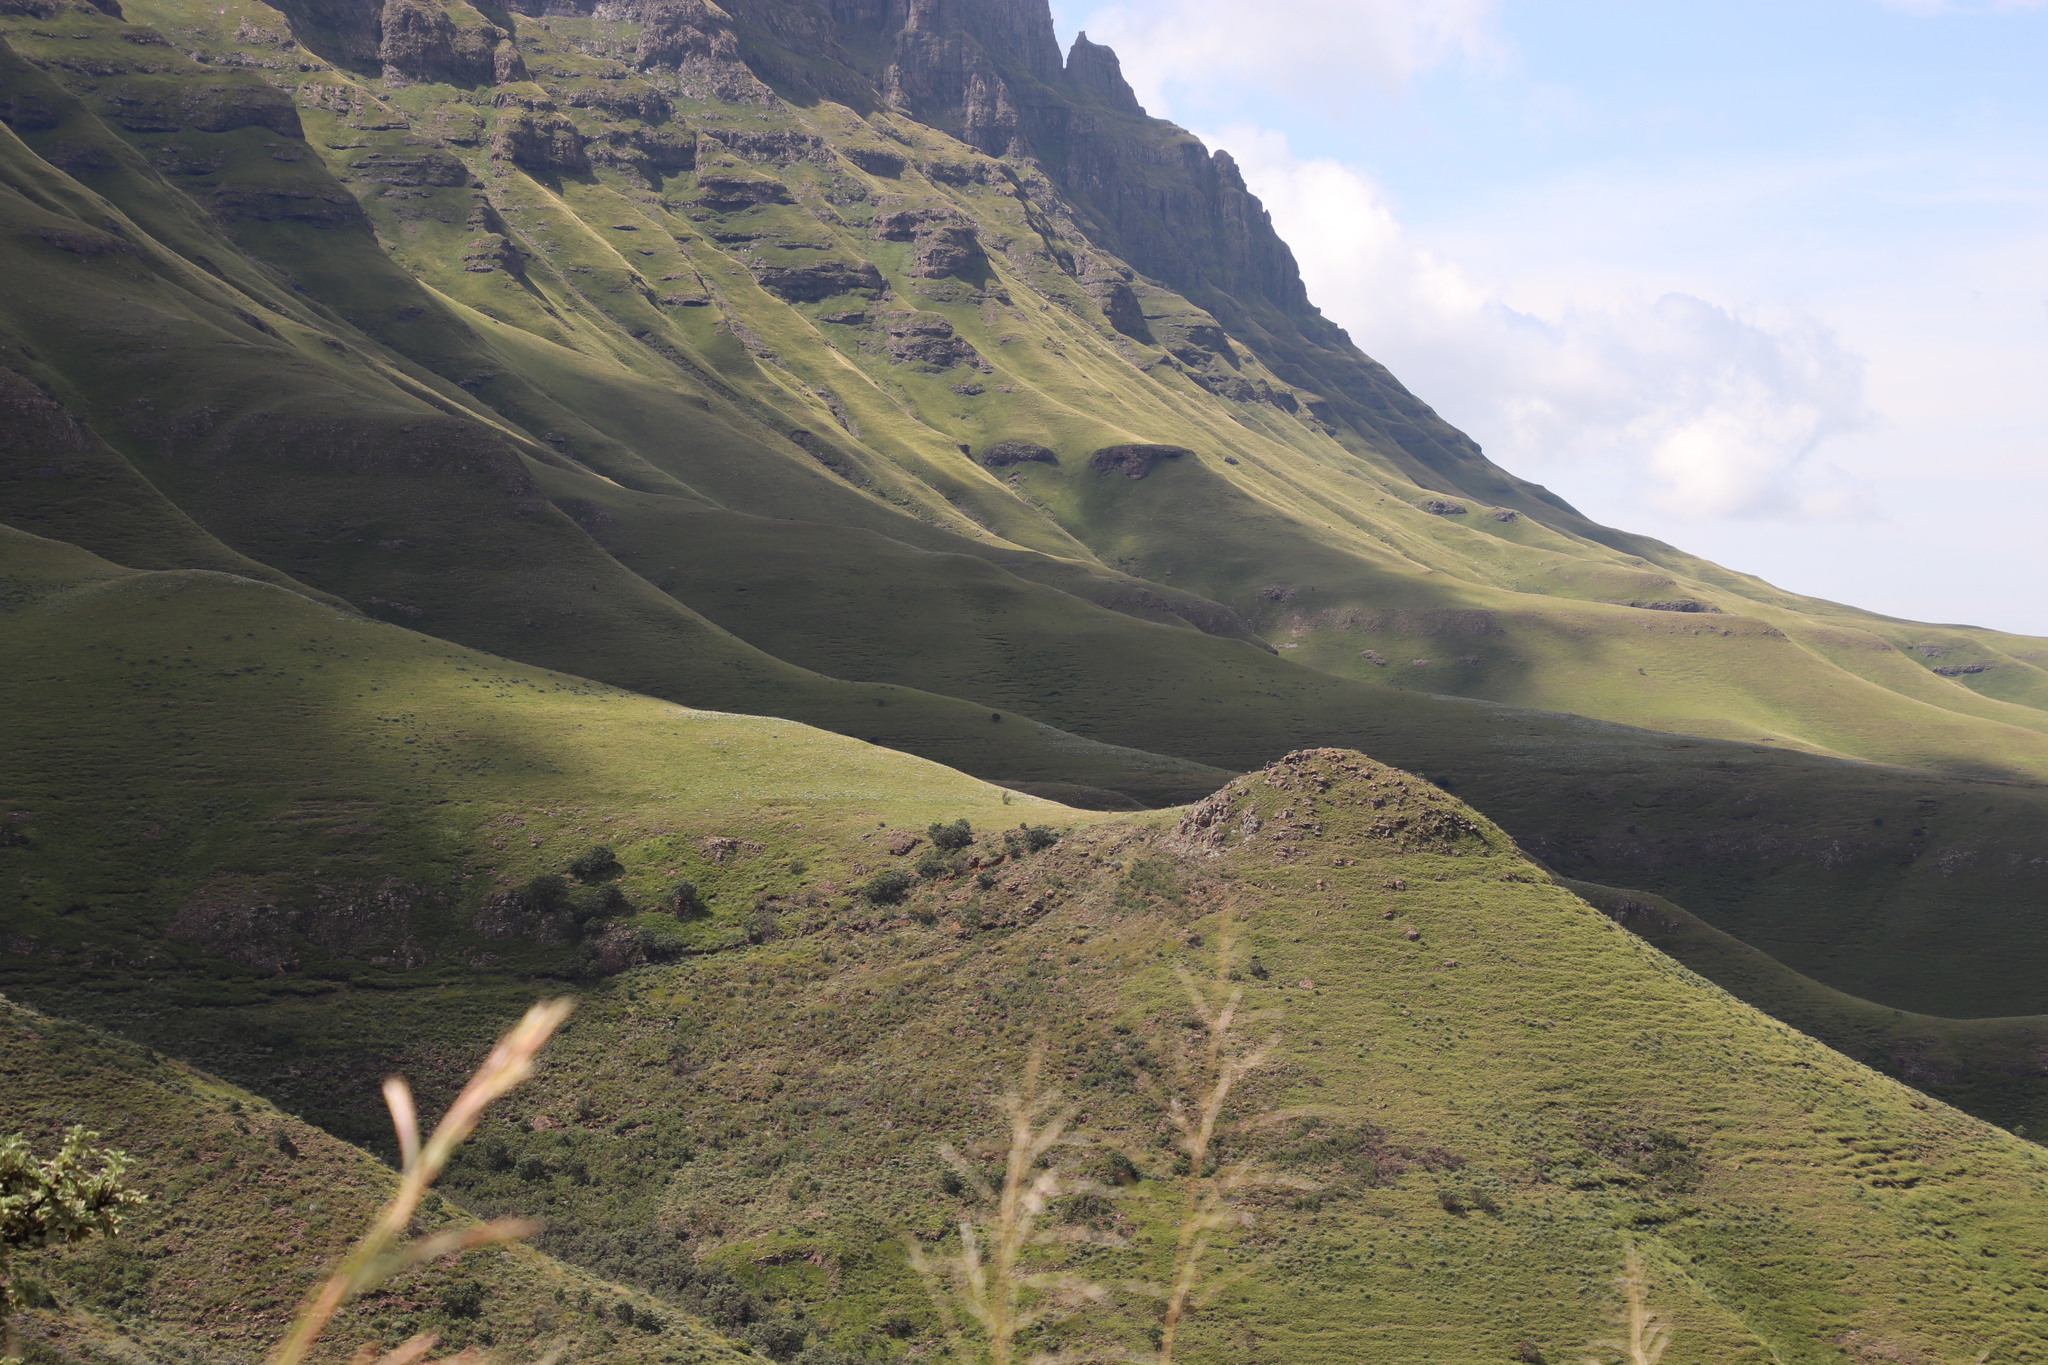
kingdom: Plantae
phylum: Tracheophyta
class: Magnoliopsida
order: Proteales
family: Proteaceae
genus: Protea
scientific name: Protea roupelliae
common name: Silver sugarbush
